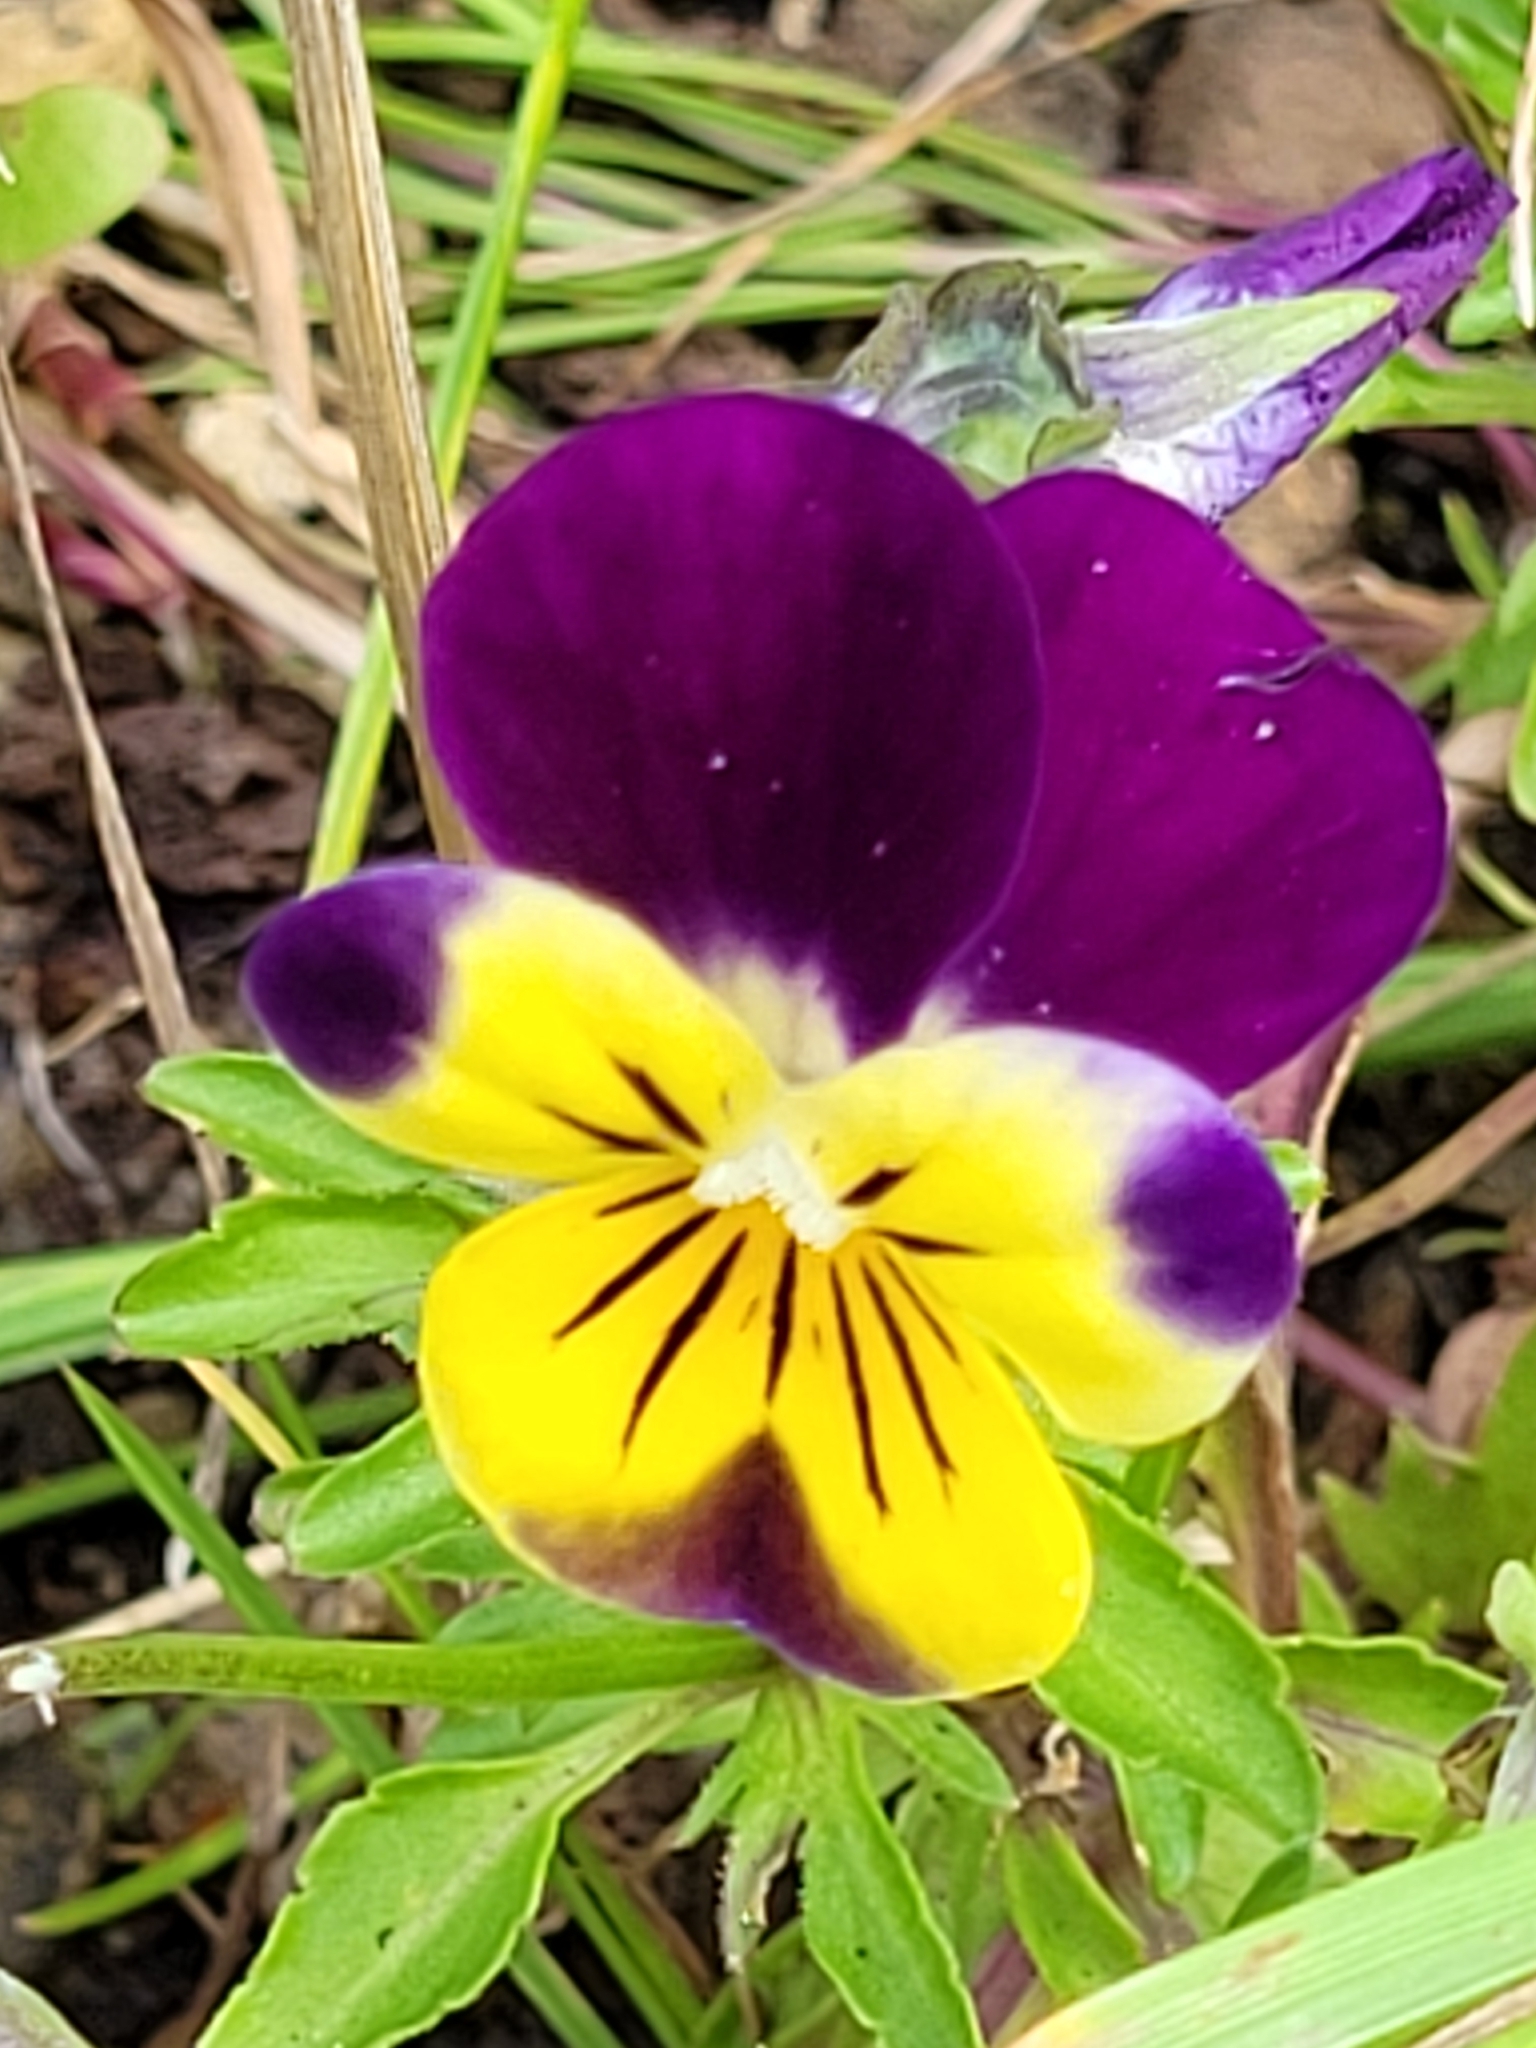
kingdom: Plantae
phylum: Tracheophyta
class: Magnoliopsida
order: Malpighiales
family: Violaceae
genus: Viola
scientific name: Viola williamsii
